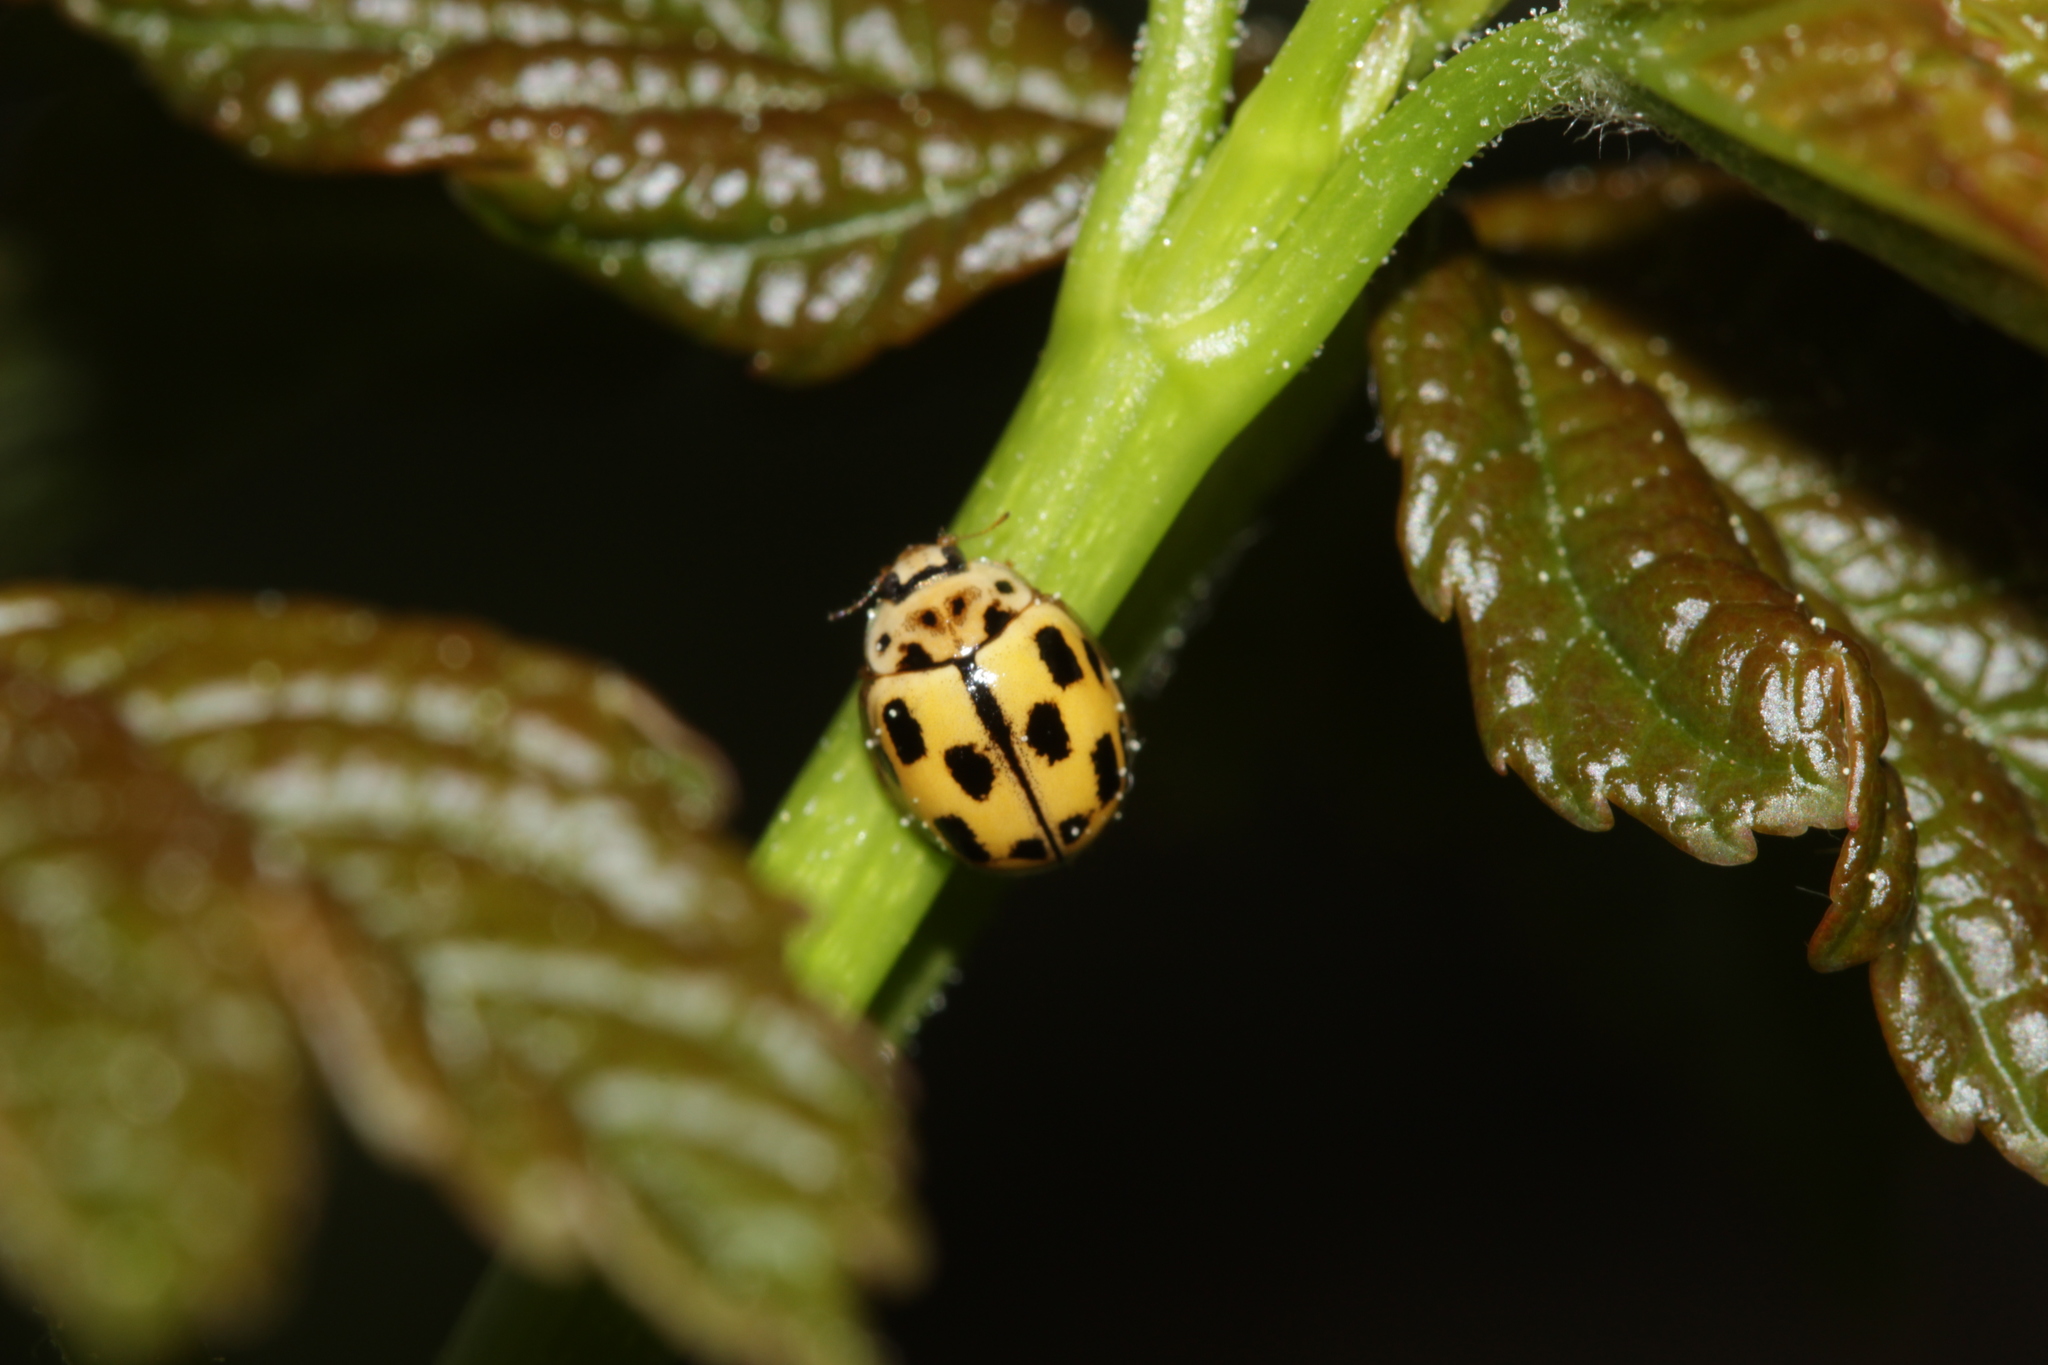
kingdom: Animalia
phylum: Arthropoda
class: Insecta
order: Coleoptera
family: Coccinellidae
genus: Propylaea
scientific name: Propylaea quatuordecimpunctata
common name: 14-spotted ladybird beetle
